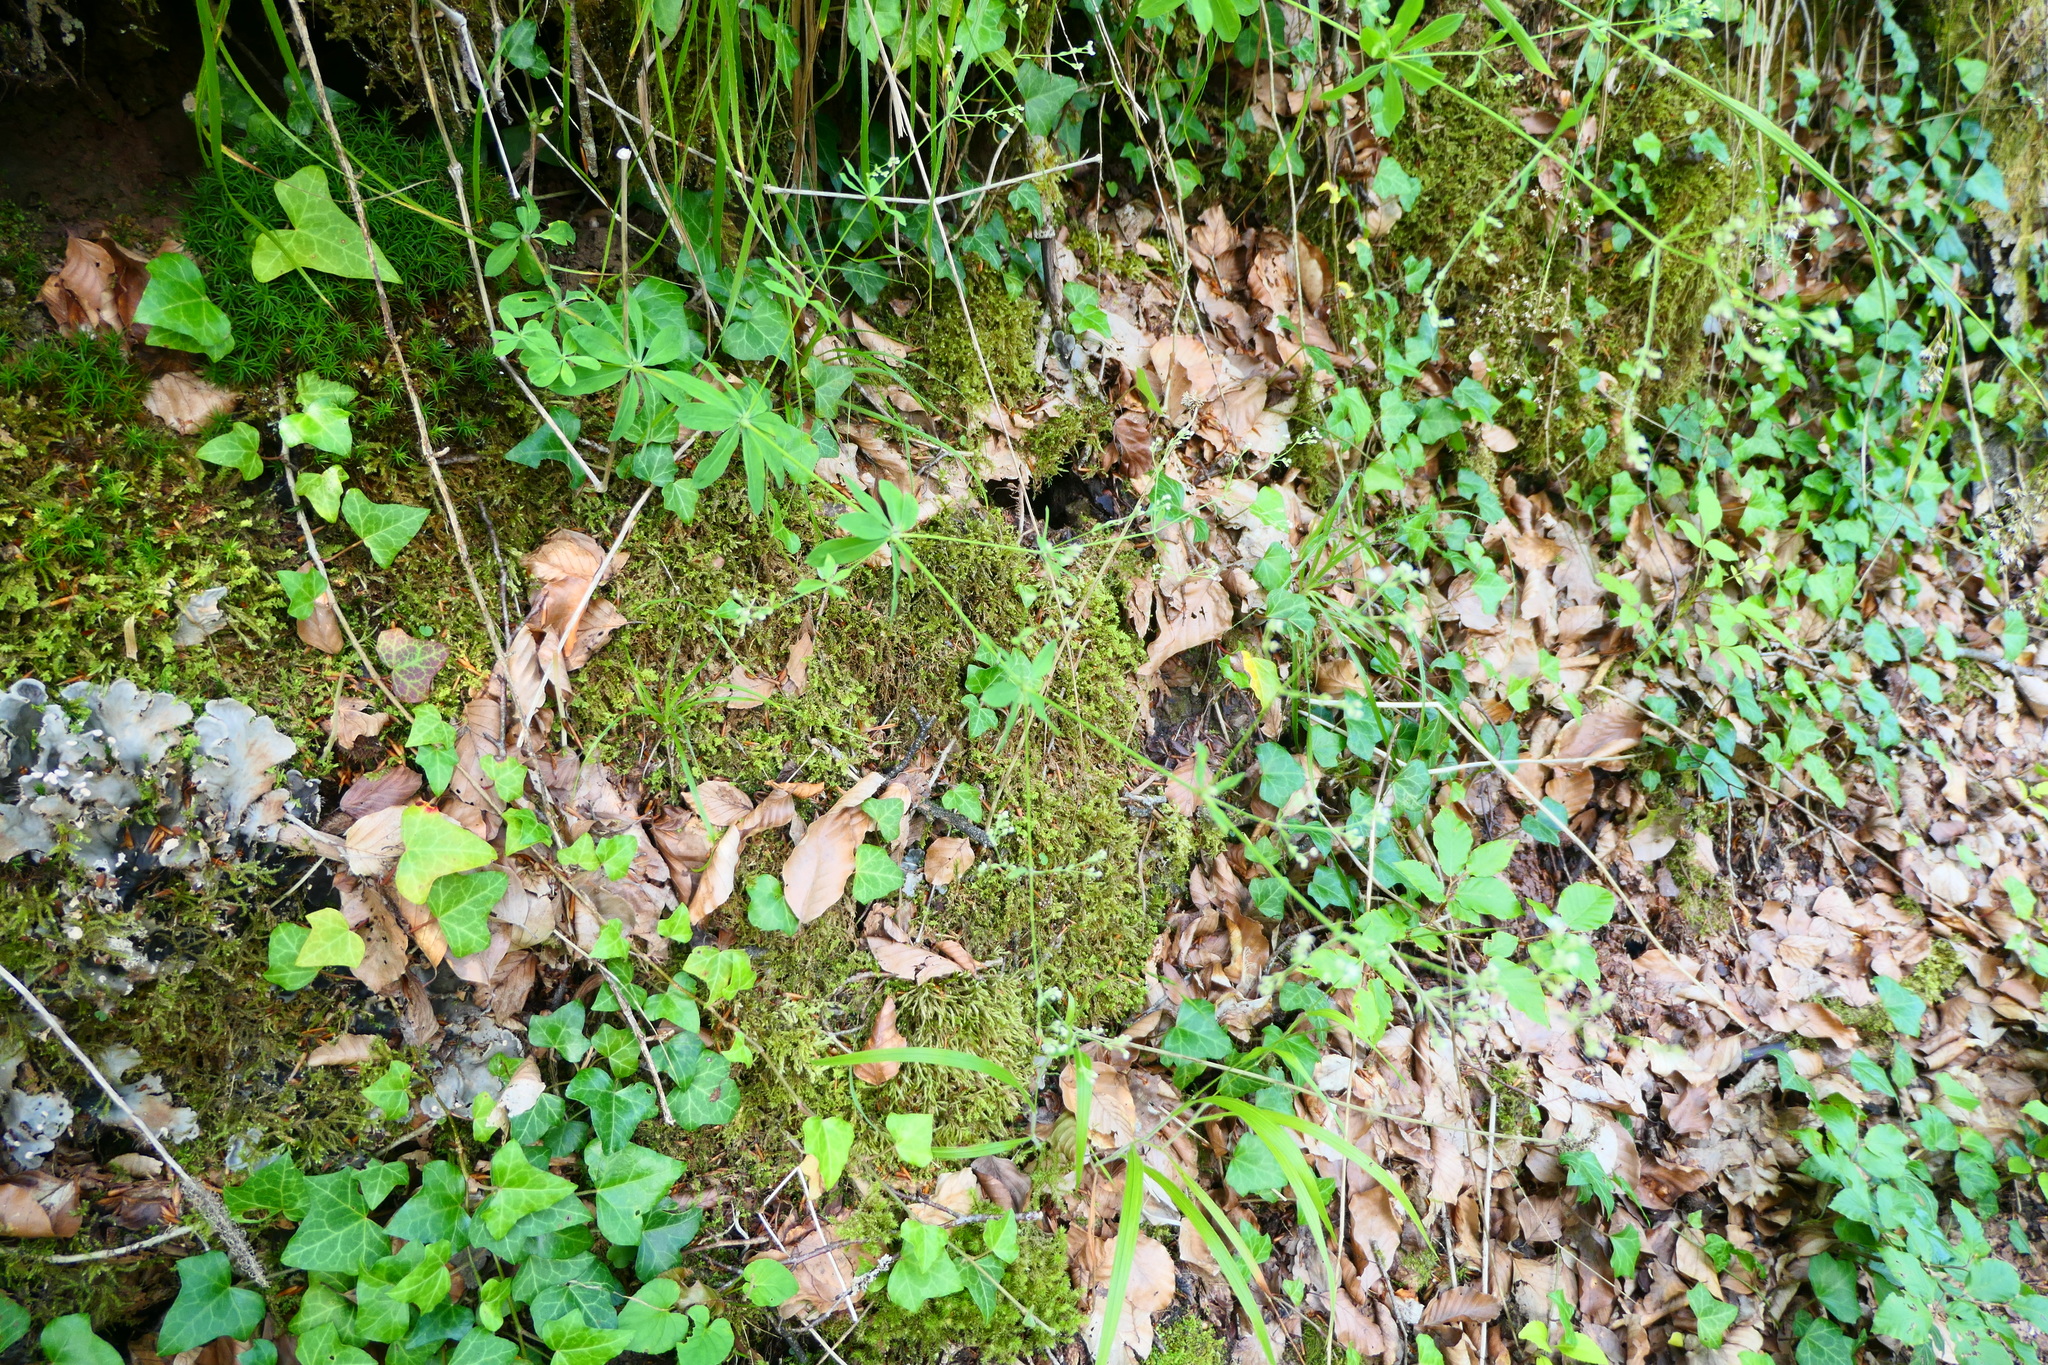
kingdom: Plantae
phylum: Tracheophyta
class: Magnoliopsida
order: Gentianales
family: Rubiaceae
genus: Galium
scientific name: Galium sylvaticum
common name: Wood bedstraw
